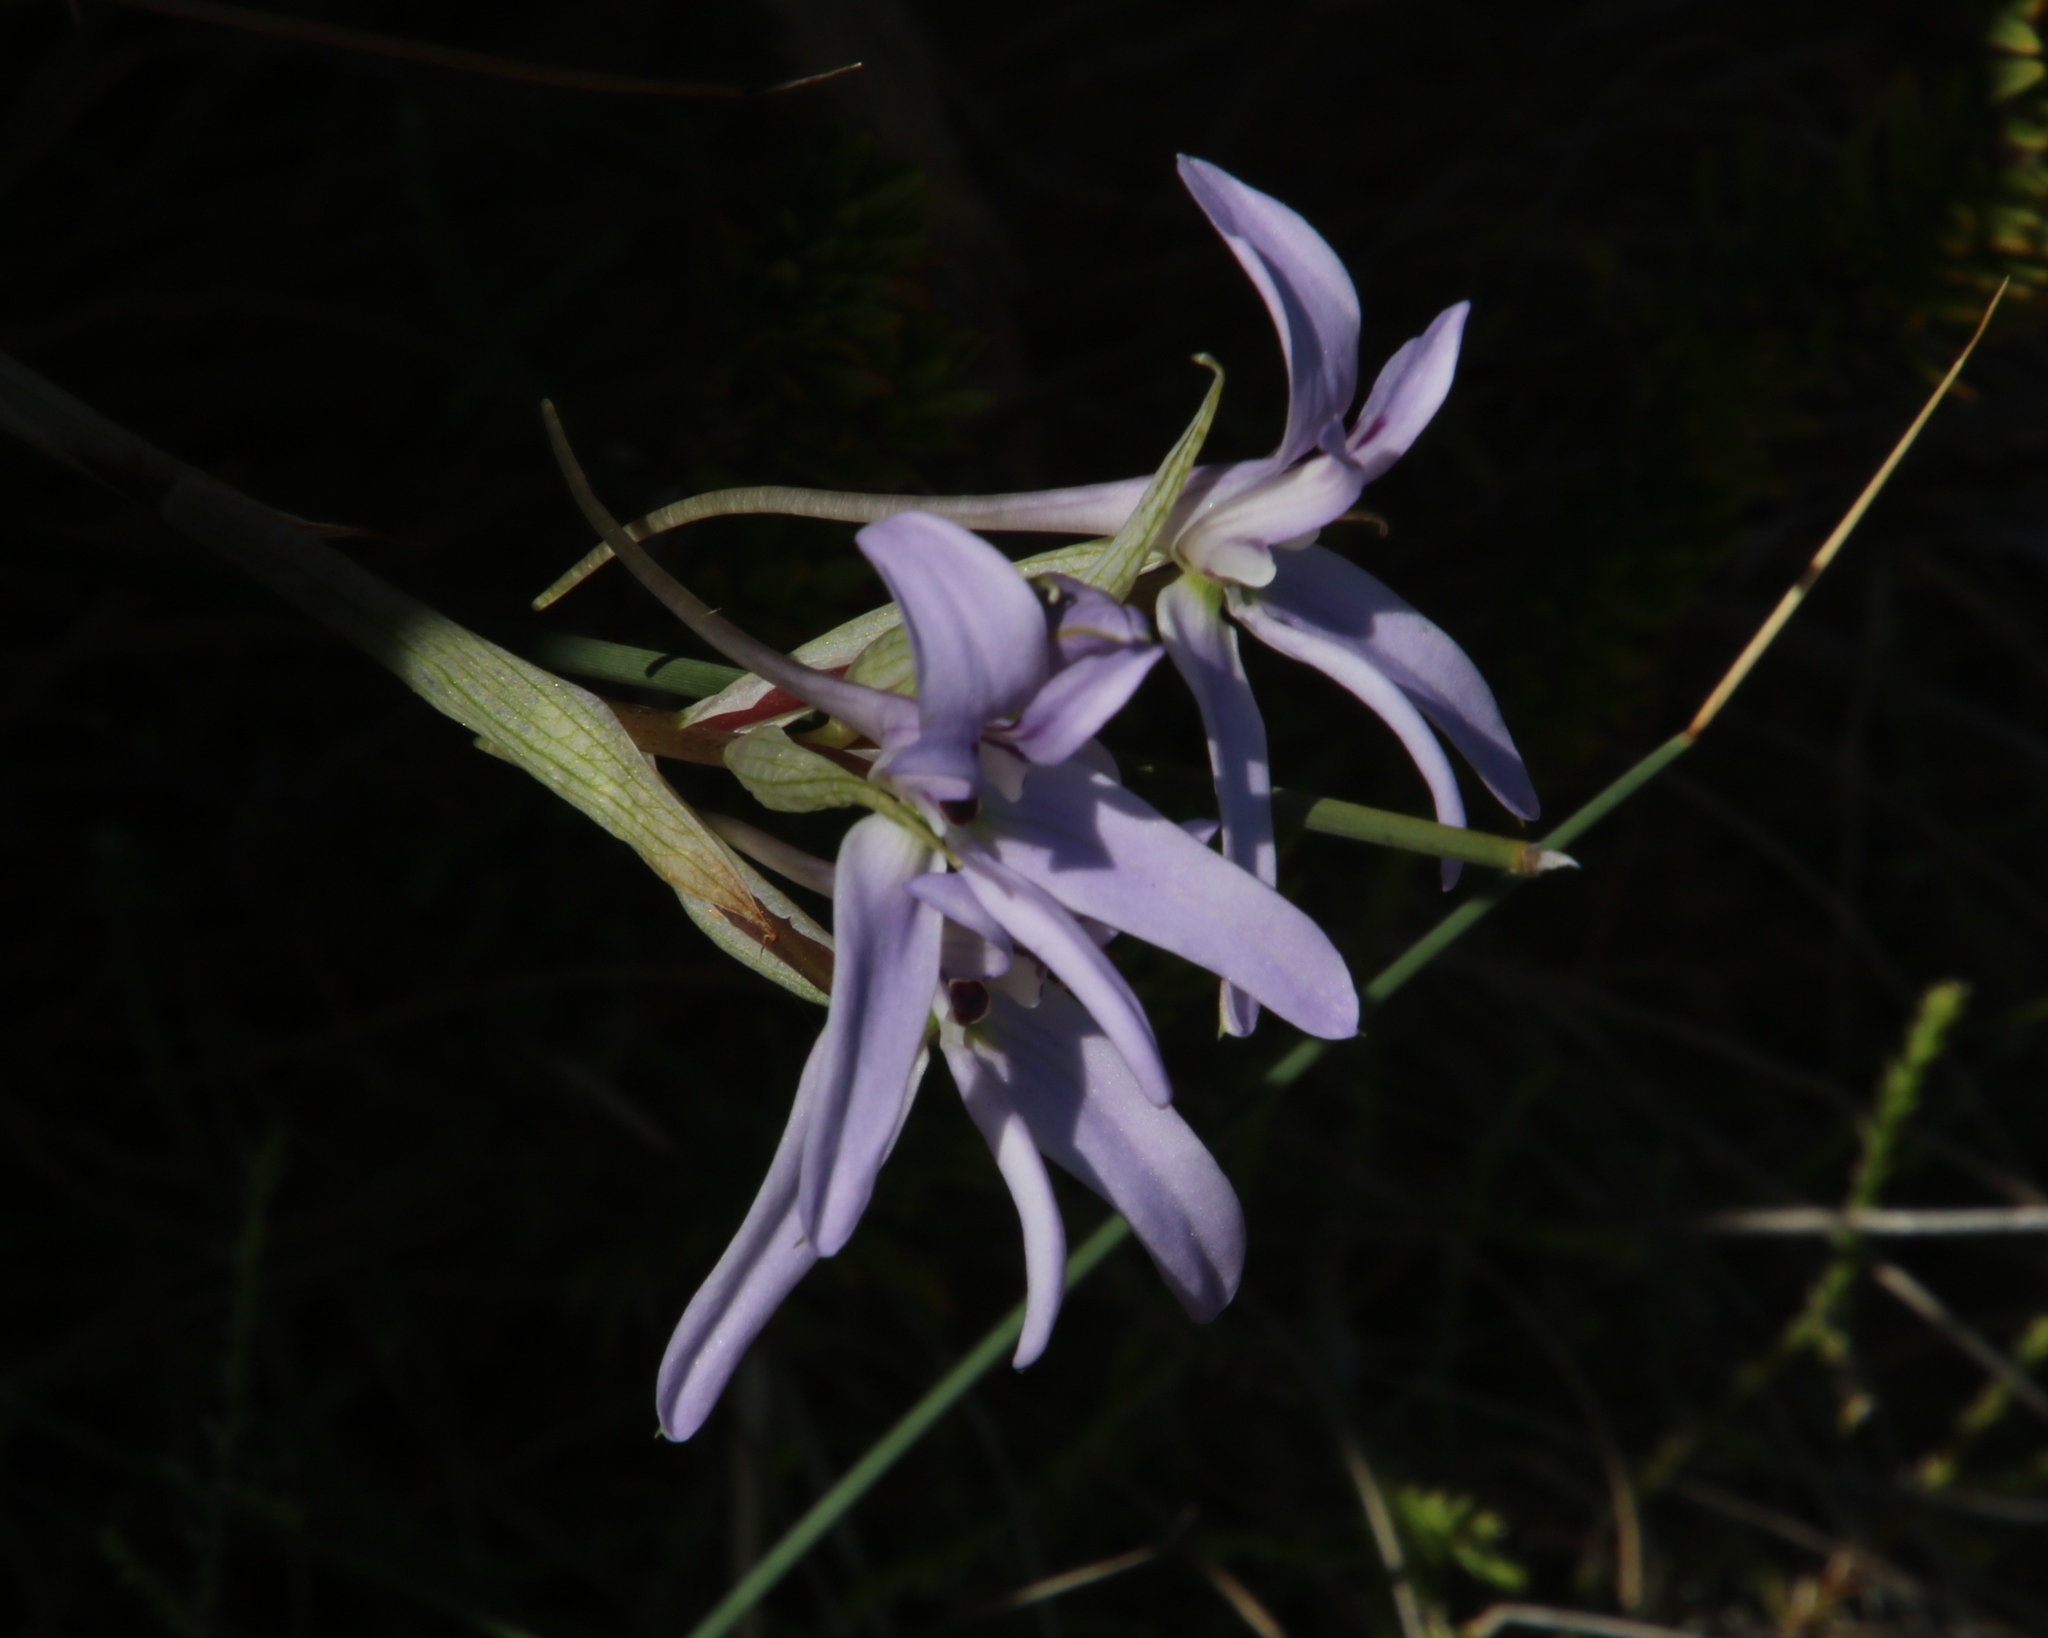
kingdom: Plantae
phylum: Tracheophyta
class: Liliopsida
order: Asparagales
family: Orchidaceae
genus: Disa
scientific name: Disa harveyana
